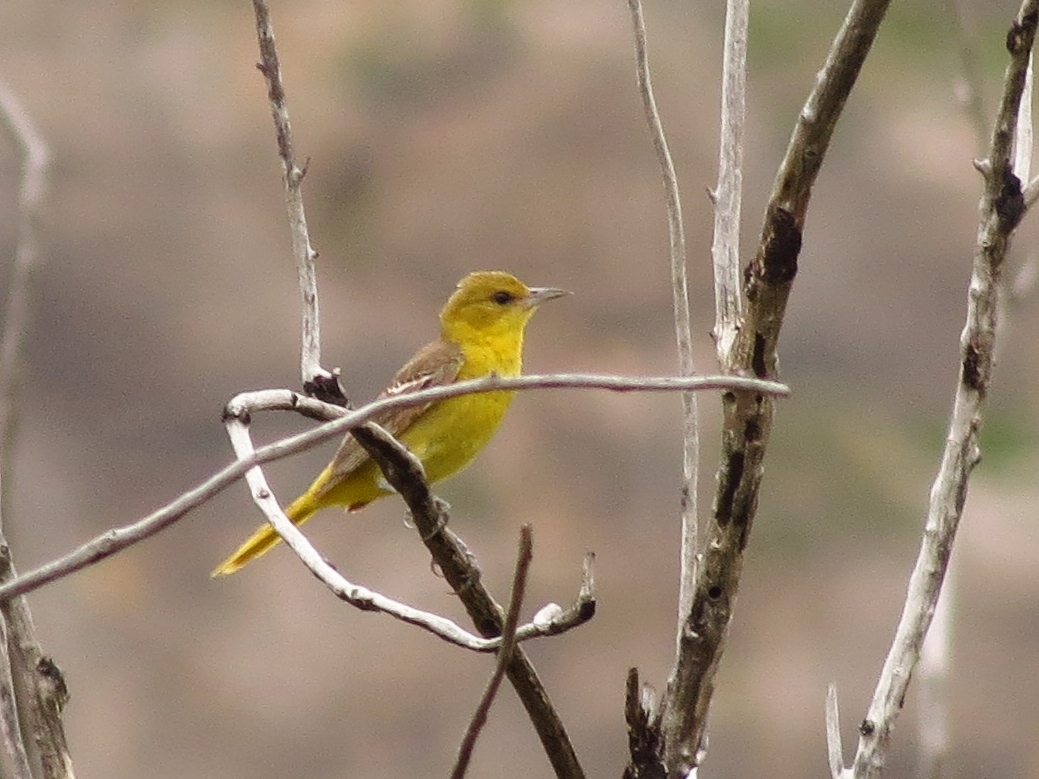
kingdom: Animalia
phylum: Chordata
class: Aves
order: Passeriformes
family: Icteridae
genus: Icterus
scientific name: Icterus spurius
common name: Orchard oriole
